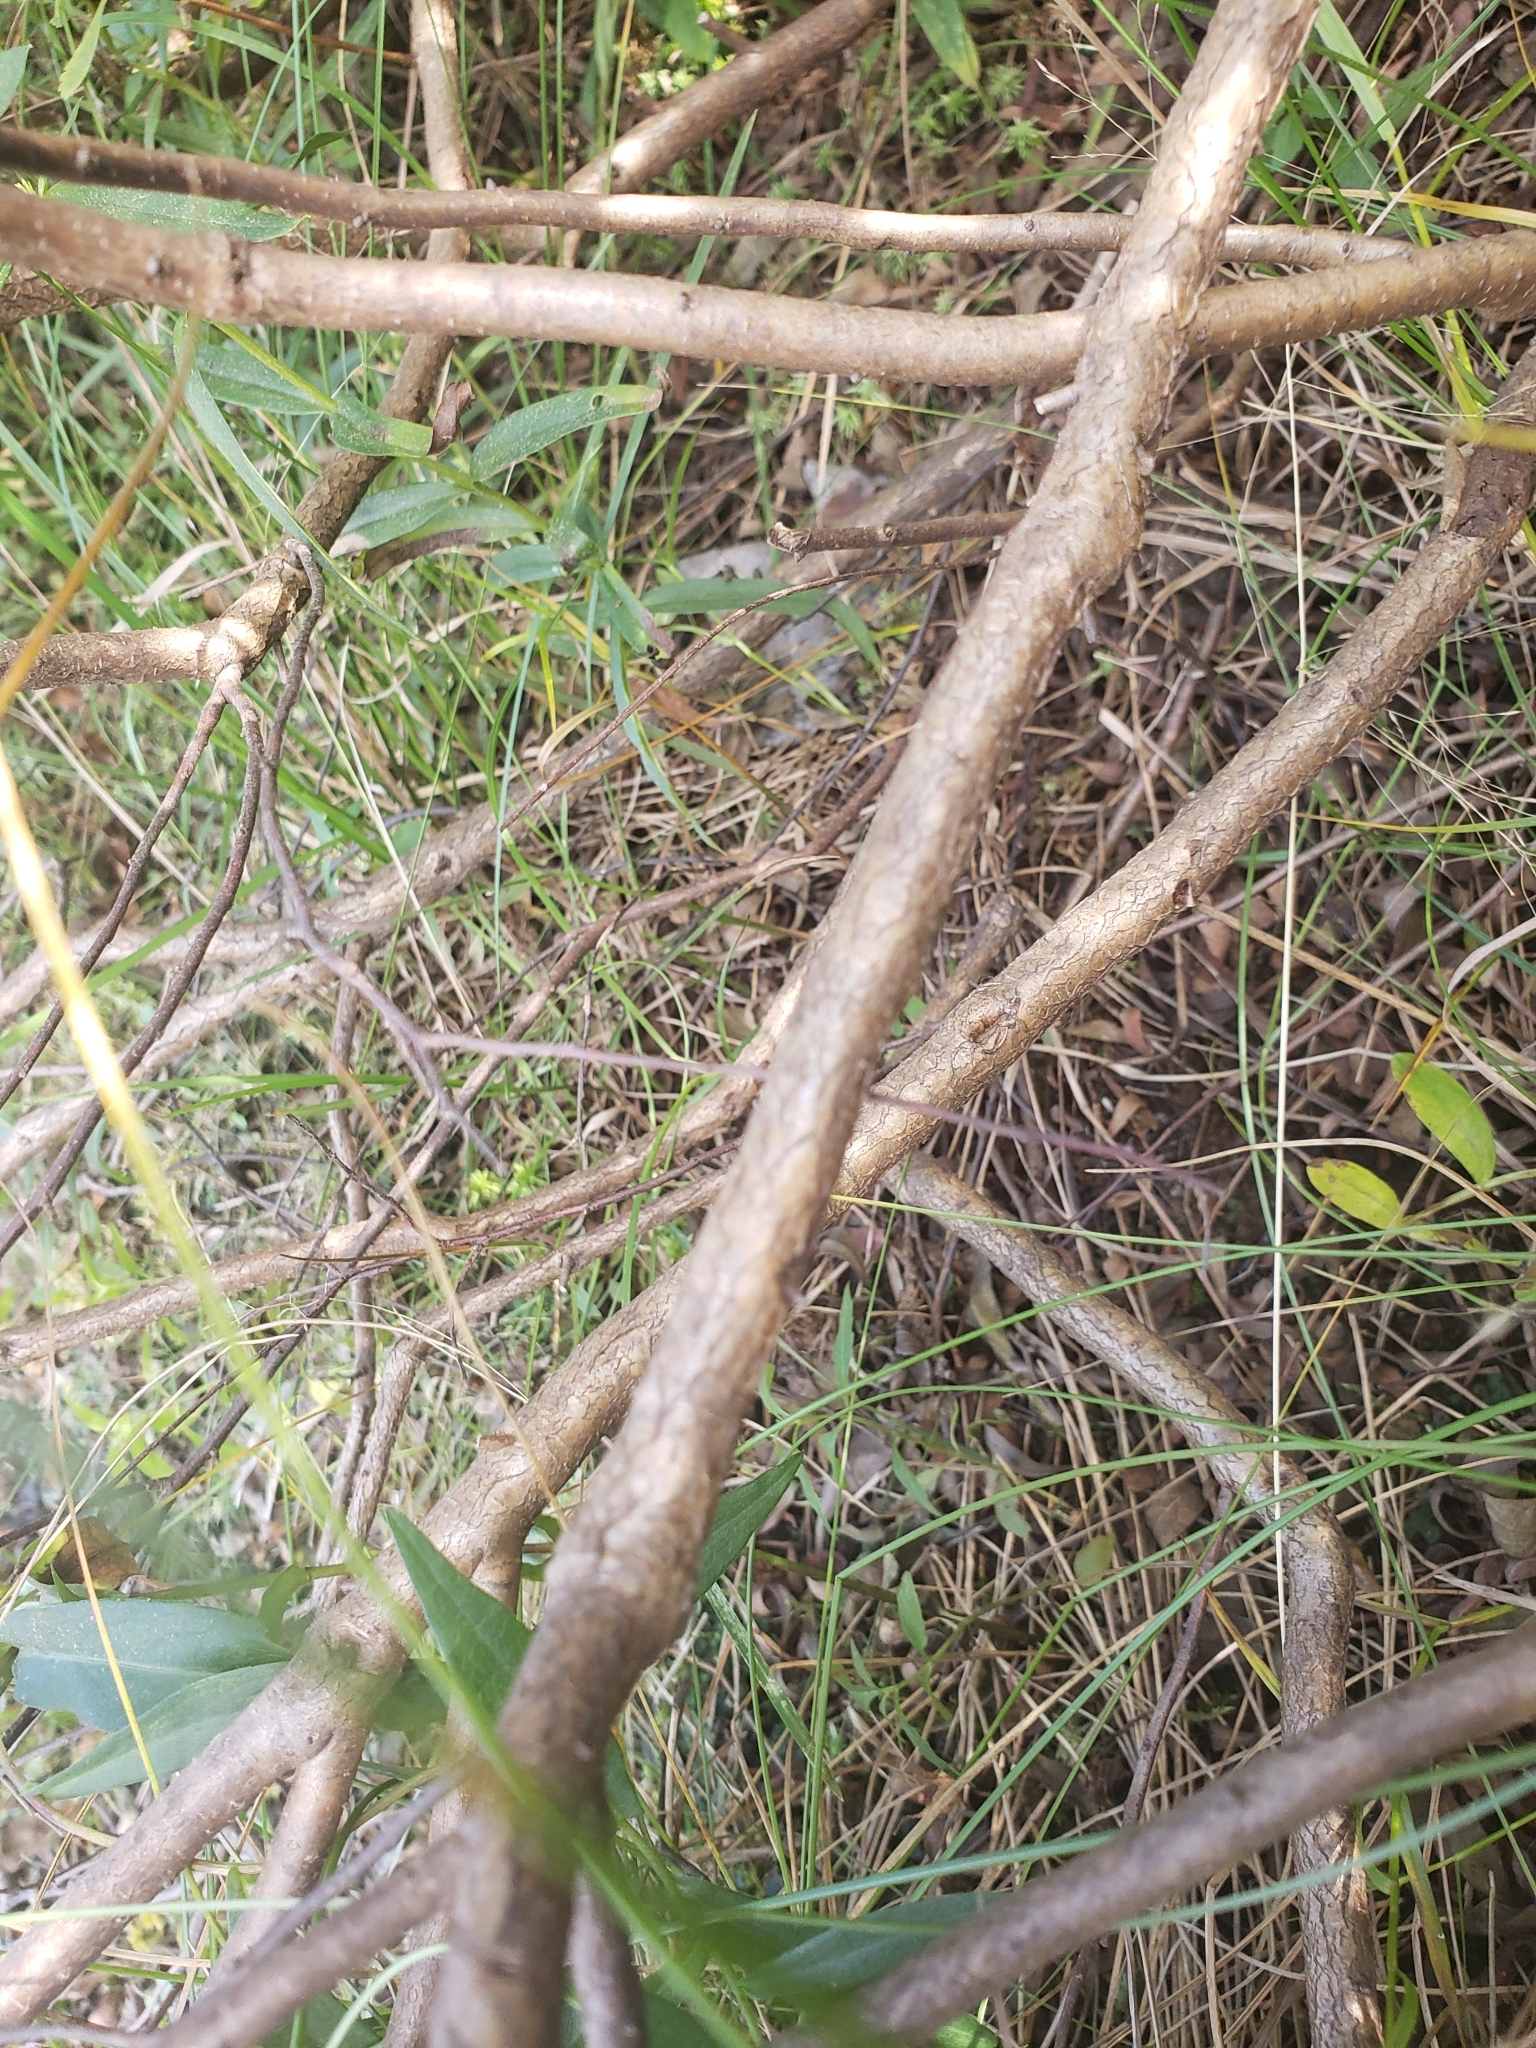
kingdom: Plantae
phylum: Tracheophyta
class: Magnoliopsida
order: Fagales
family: Myricaceae
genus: Myrica
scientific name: Myrica gale
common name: Sweet gale
